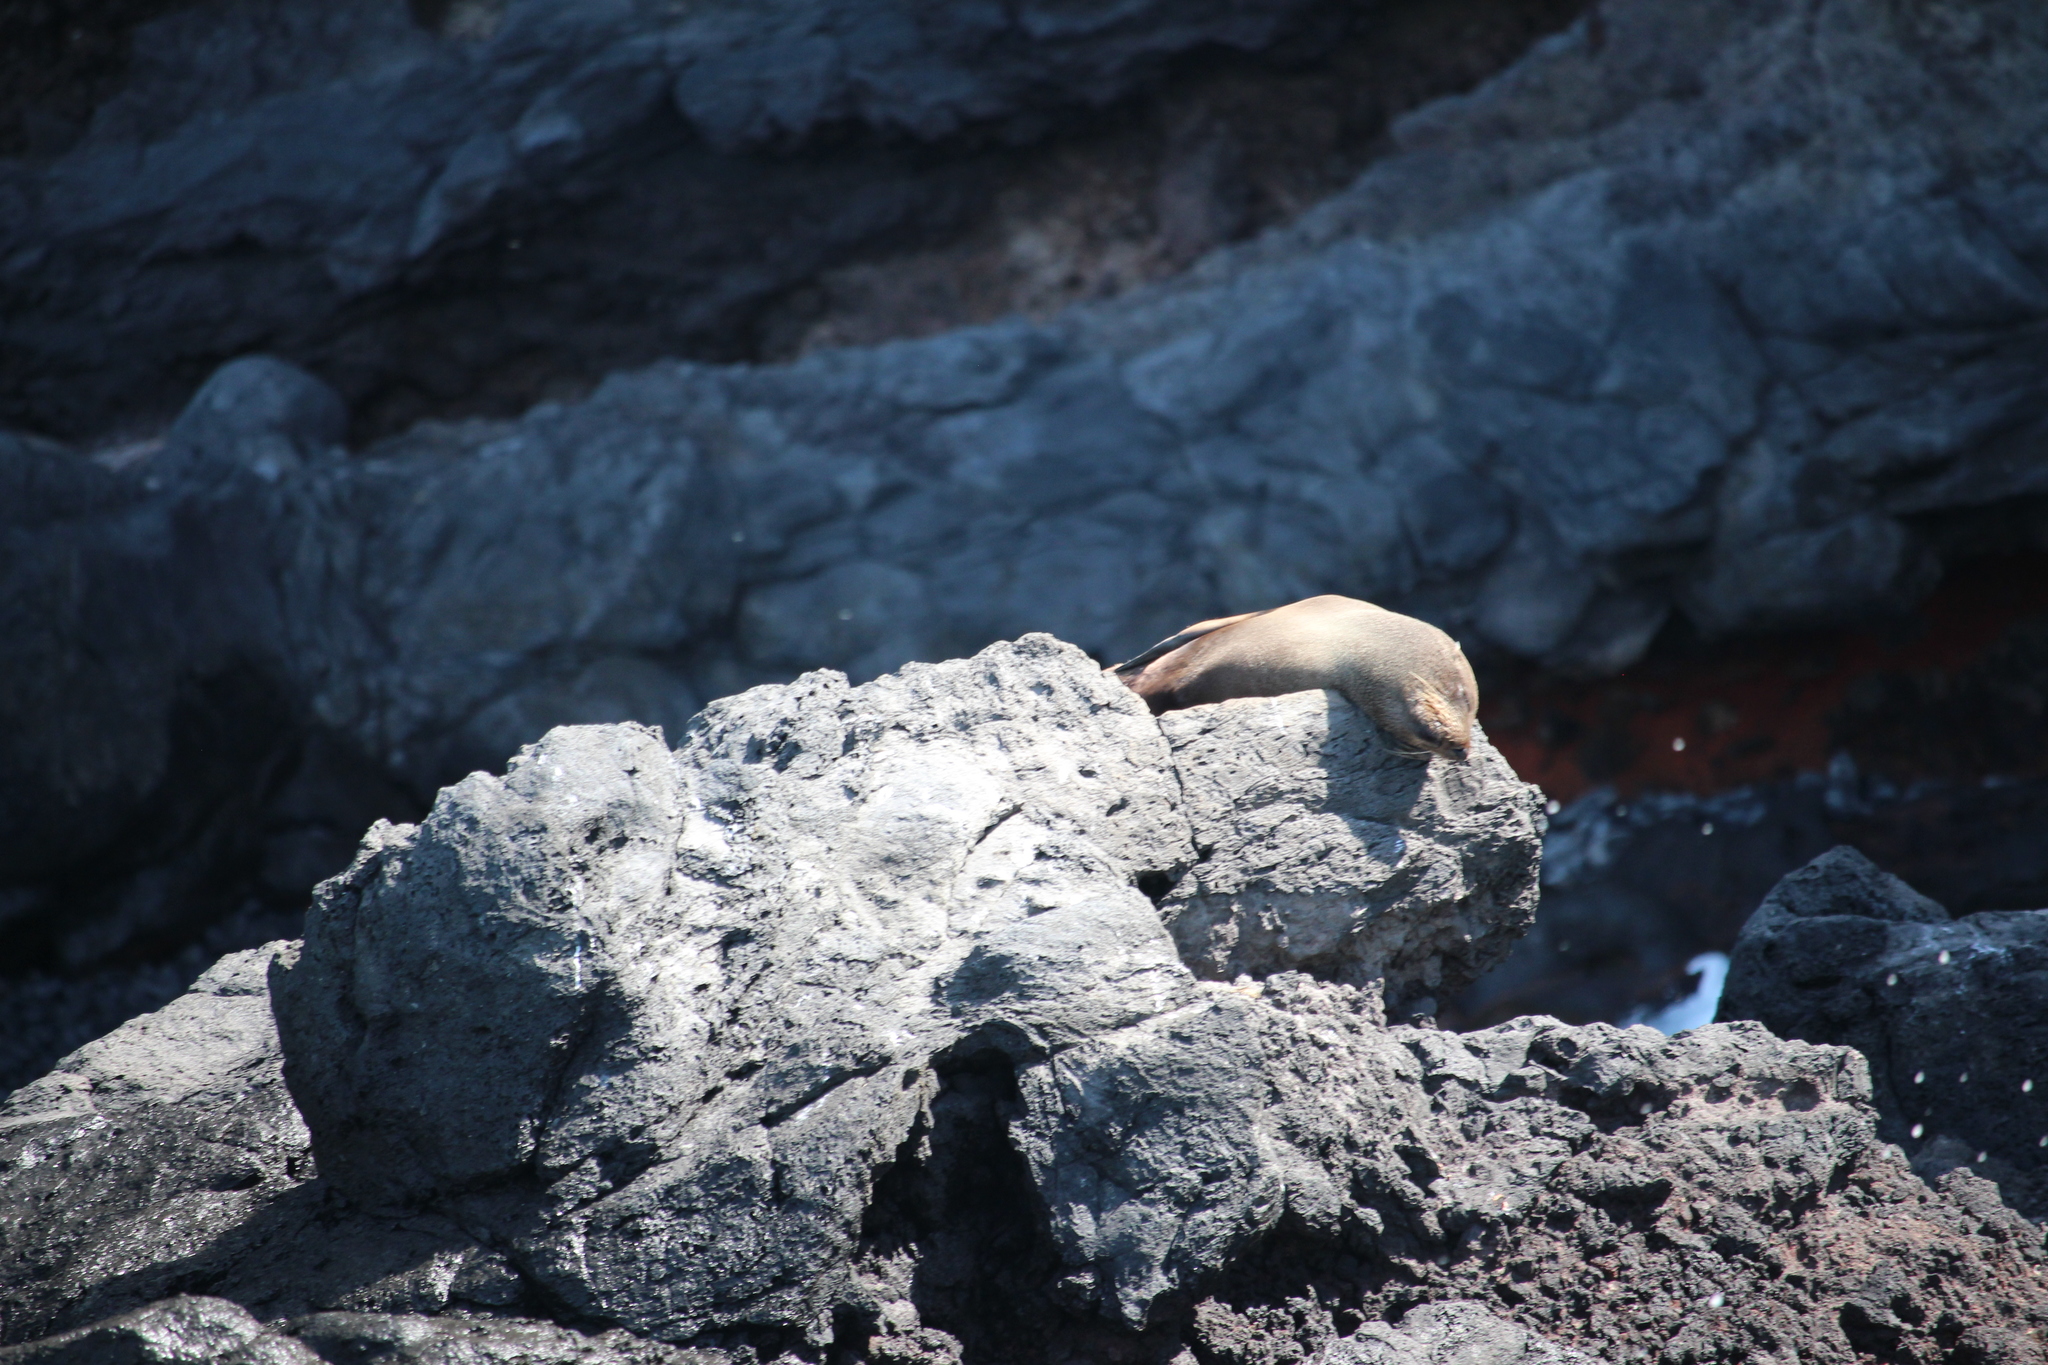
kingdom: Animalia
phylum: Chordata
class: Mammalia
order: Carnivora
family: Otariidae
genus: Arctocephalus
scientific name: Arctocephalus forsteri
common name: New zealand fur seal
